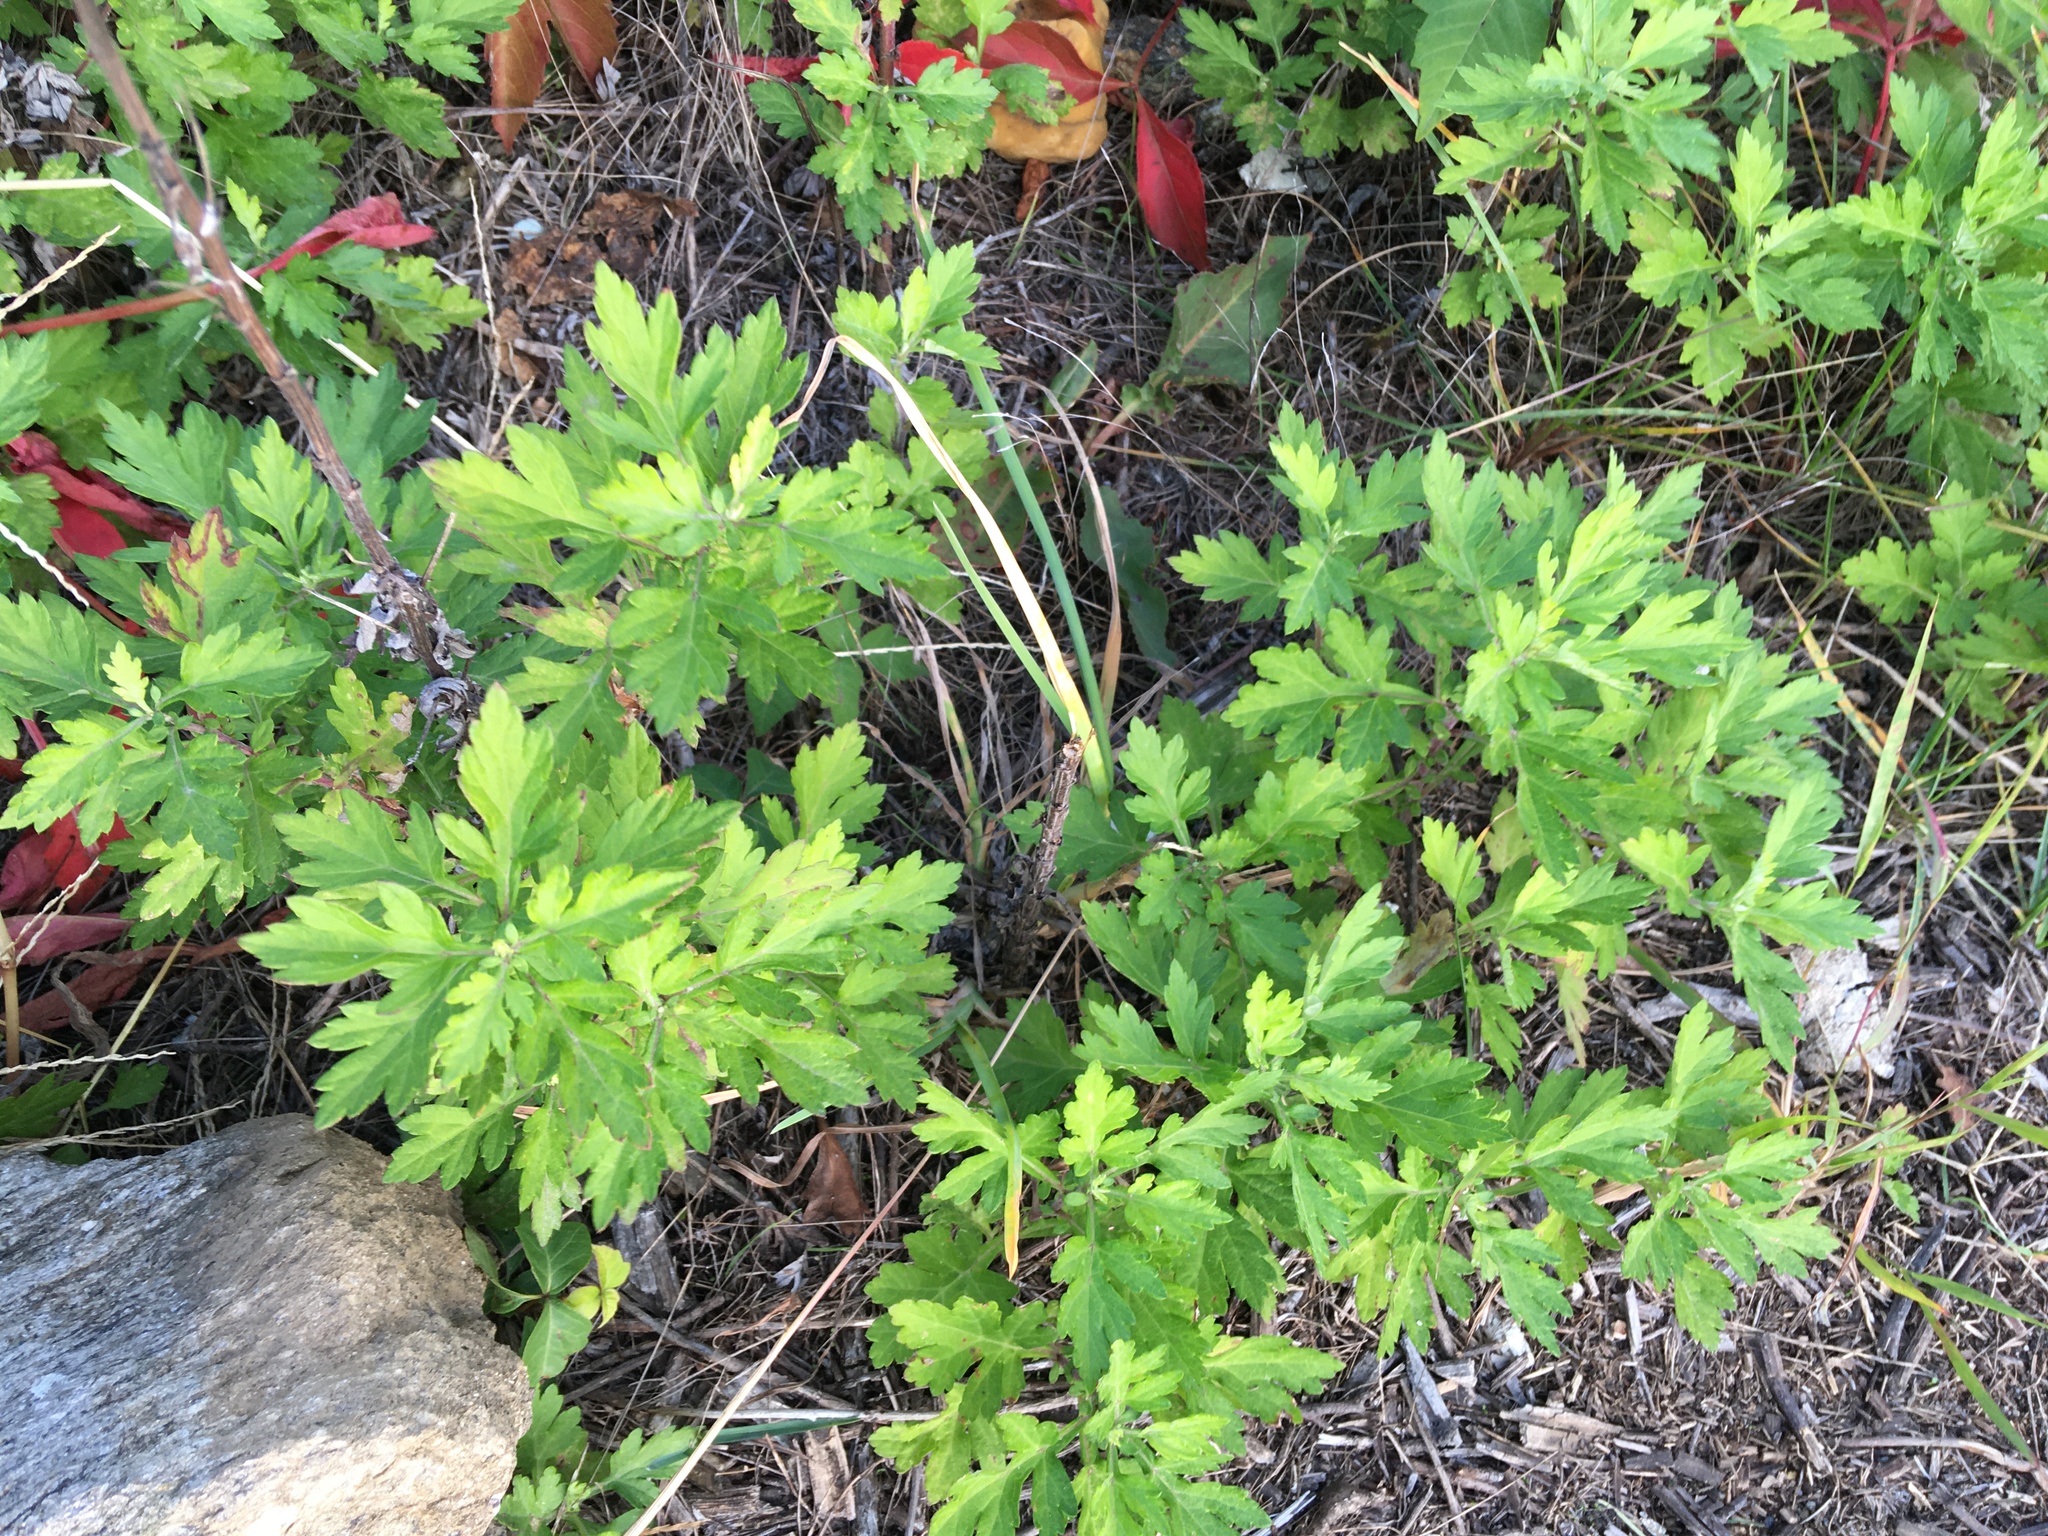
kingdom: Plantae
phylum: Tracheophyta
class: Magnoliopsida
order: Asterales
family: Asteraceae
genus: Artemisia
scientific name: Artemisia vulgaris
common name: Mugwort
